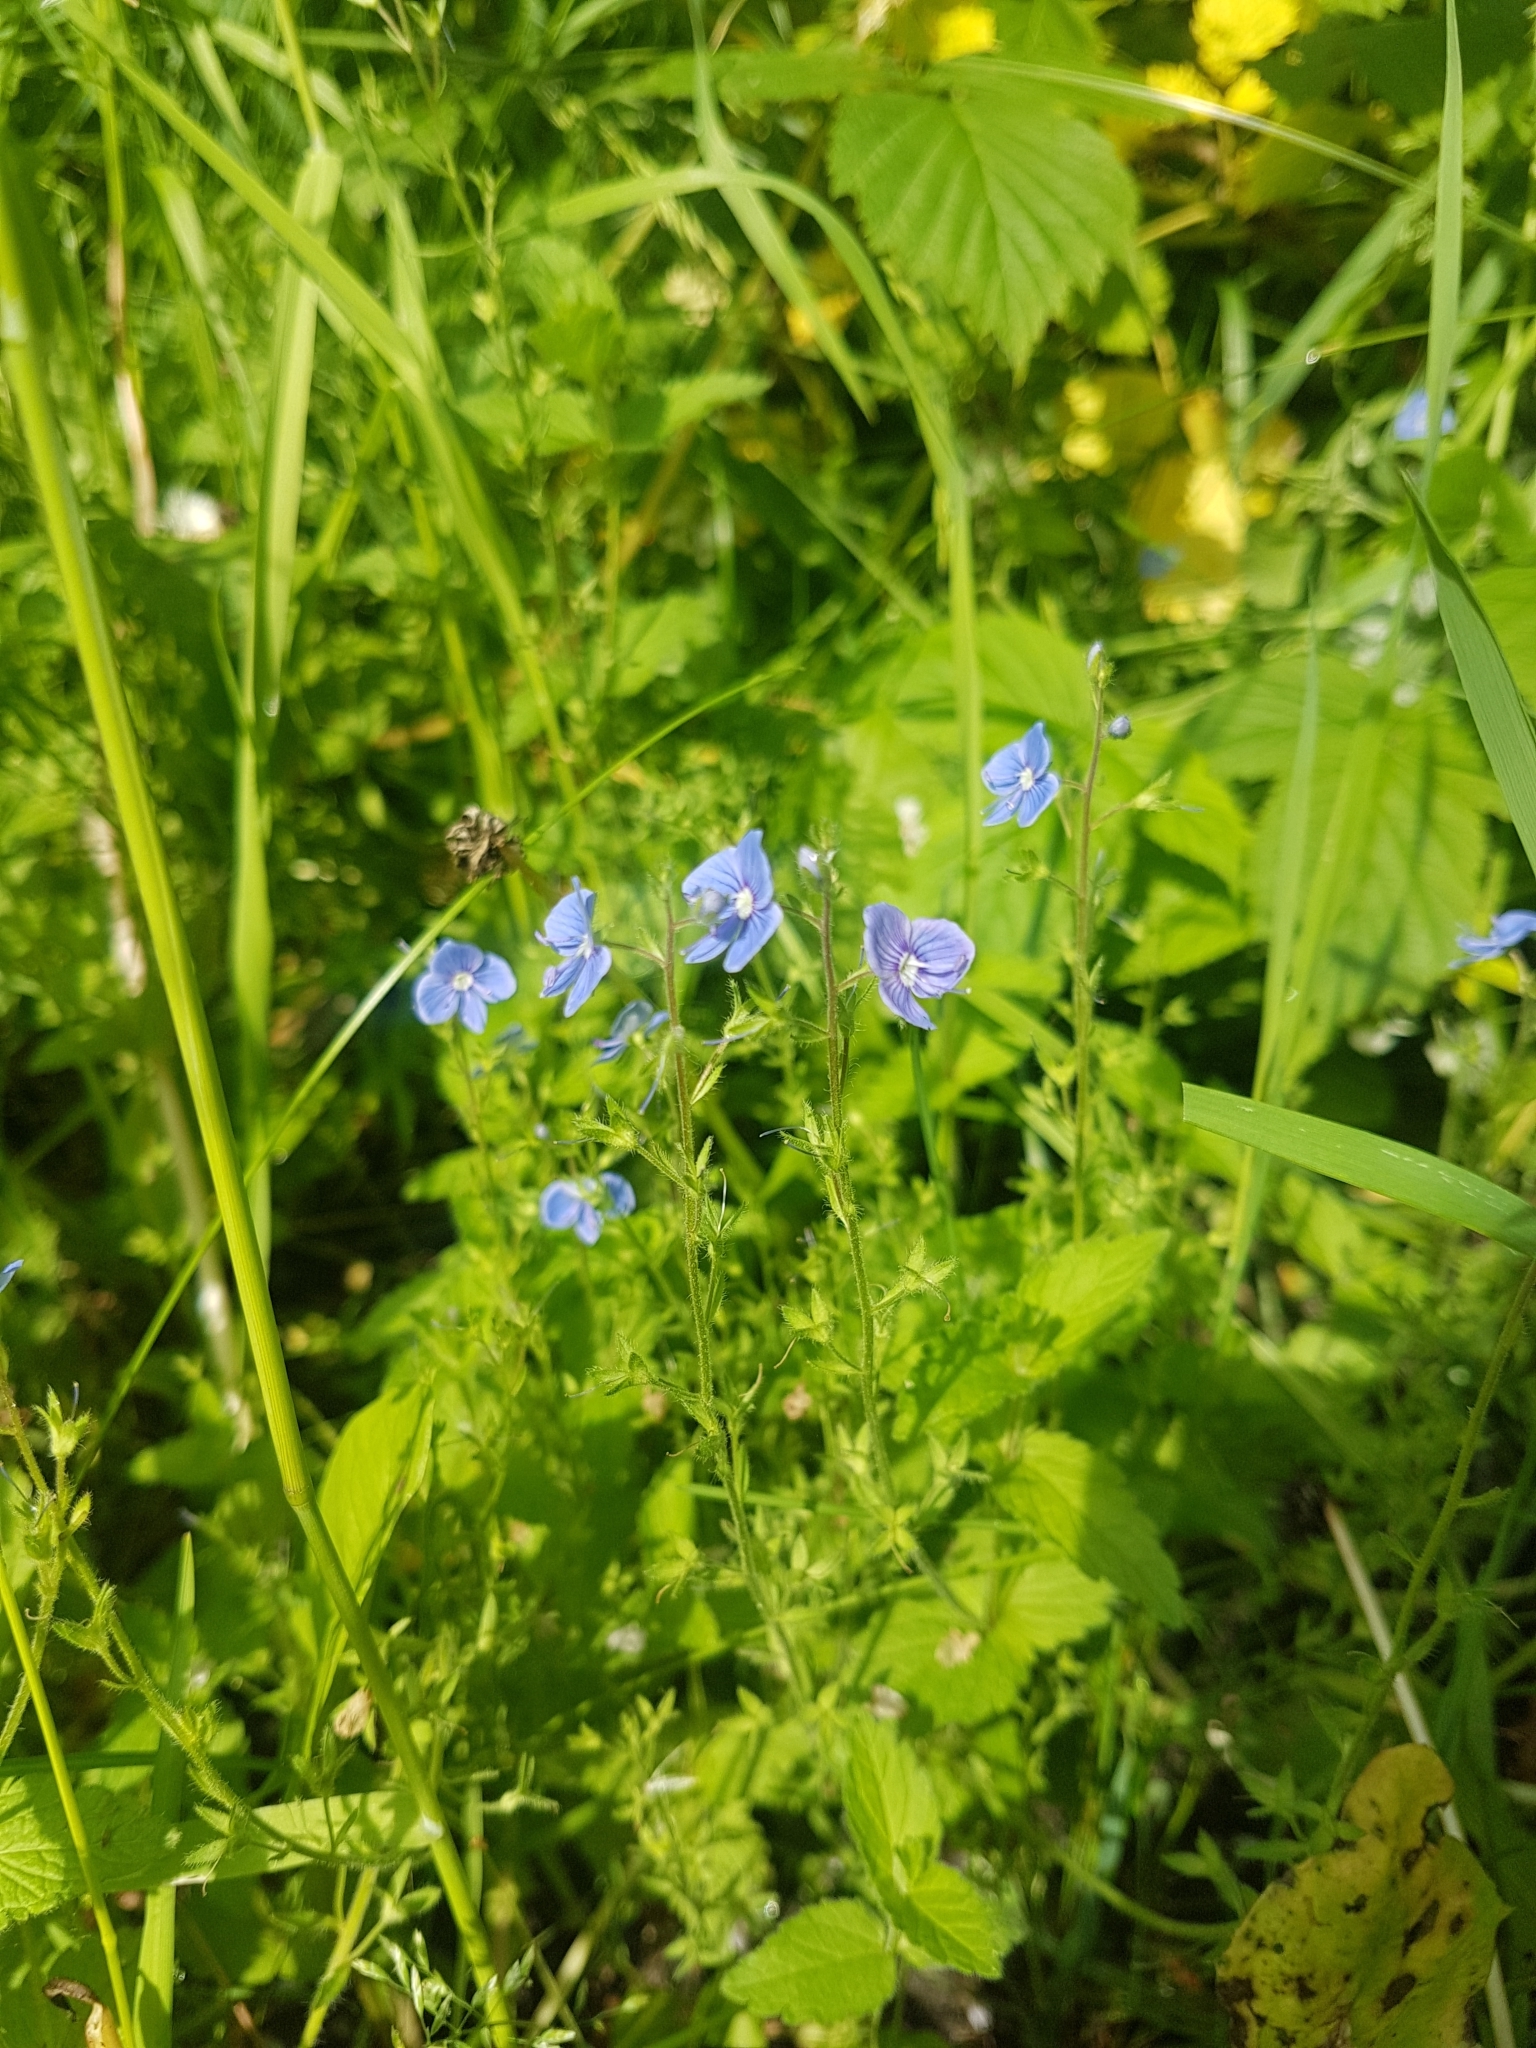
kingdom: Plantae
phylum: Tracheophyta
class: Magnoliopsida
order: Lamiales
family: Plantaginaceae
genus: Veronica
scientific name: Veronica chamaedrys
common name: Germander speedwell
